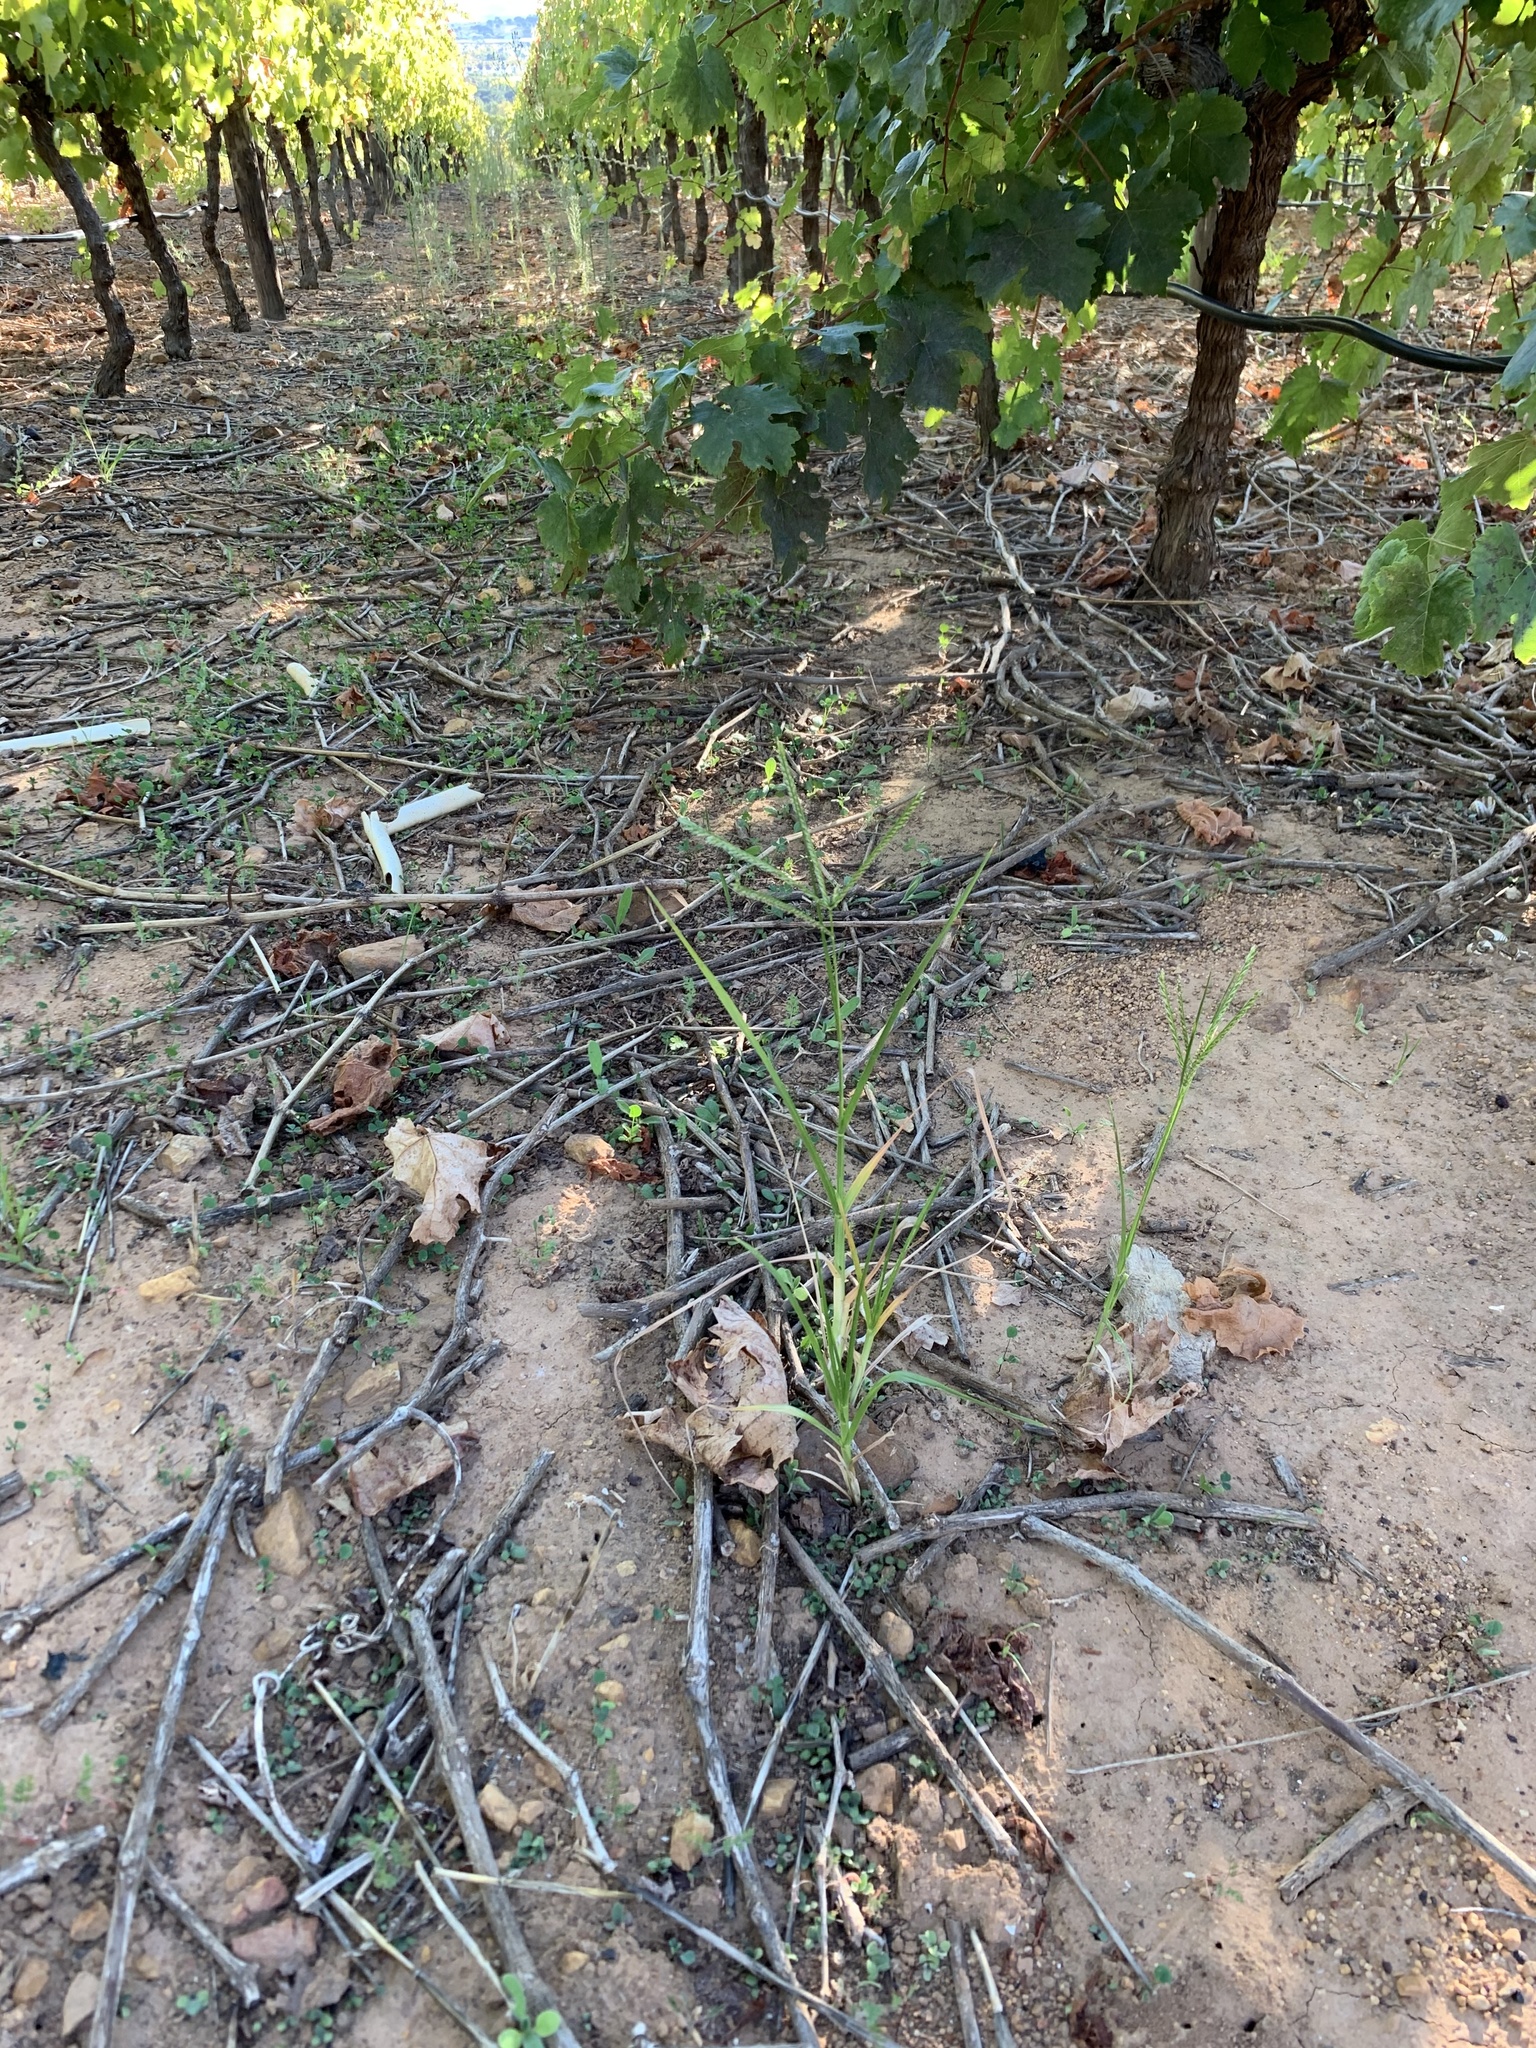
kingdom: Plantae
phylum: Tracheophyta
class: Liliopsida
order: Poales
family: Poaceae
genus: Eleusine
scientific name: Eleusine indica
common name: Yard-grass
